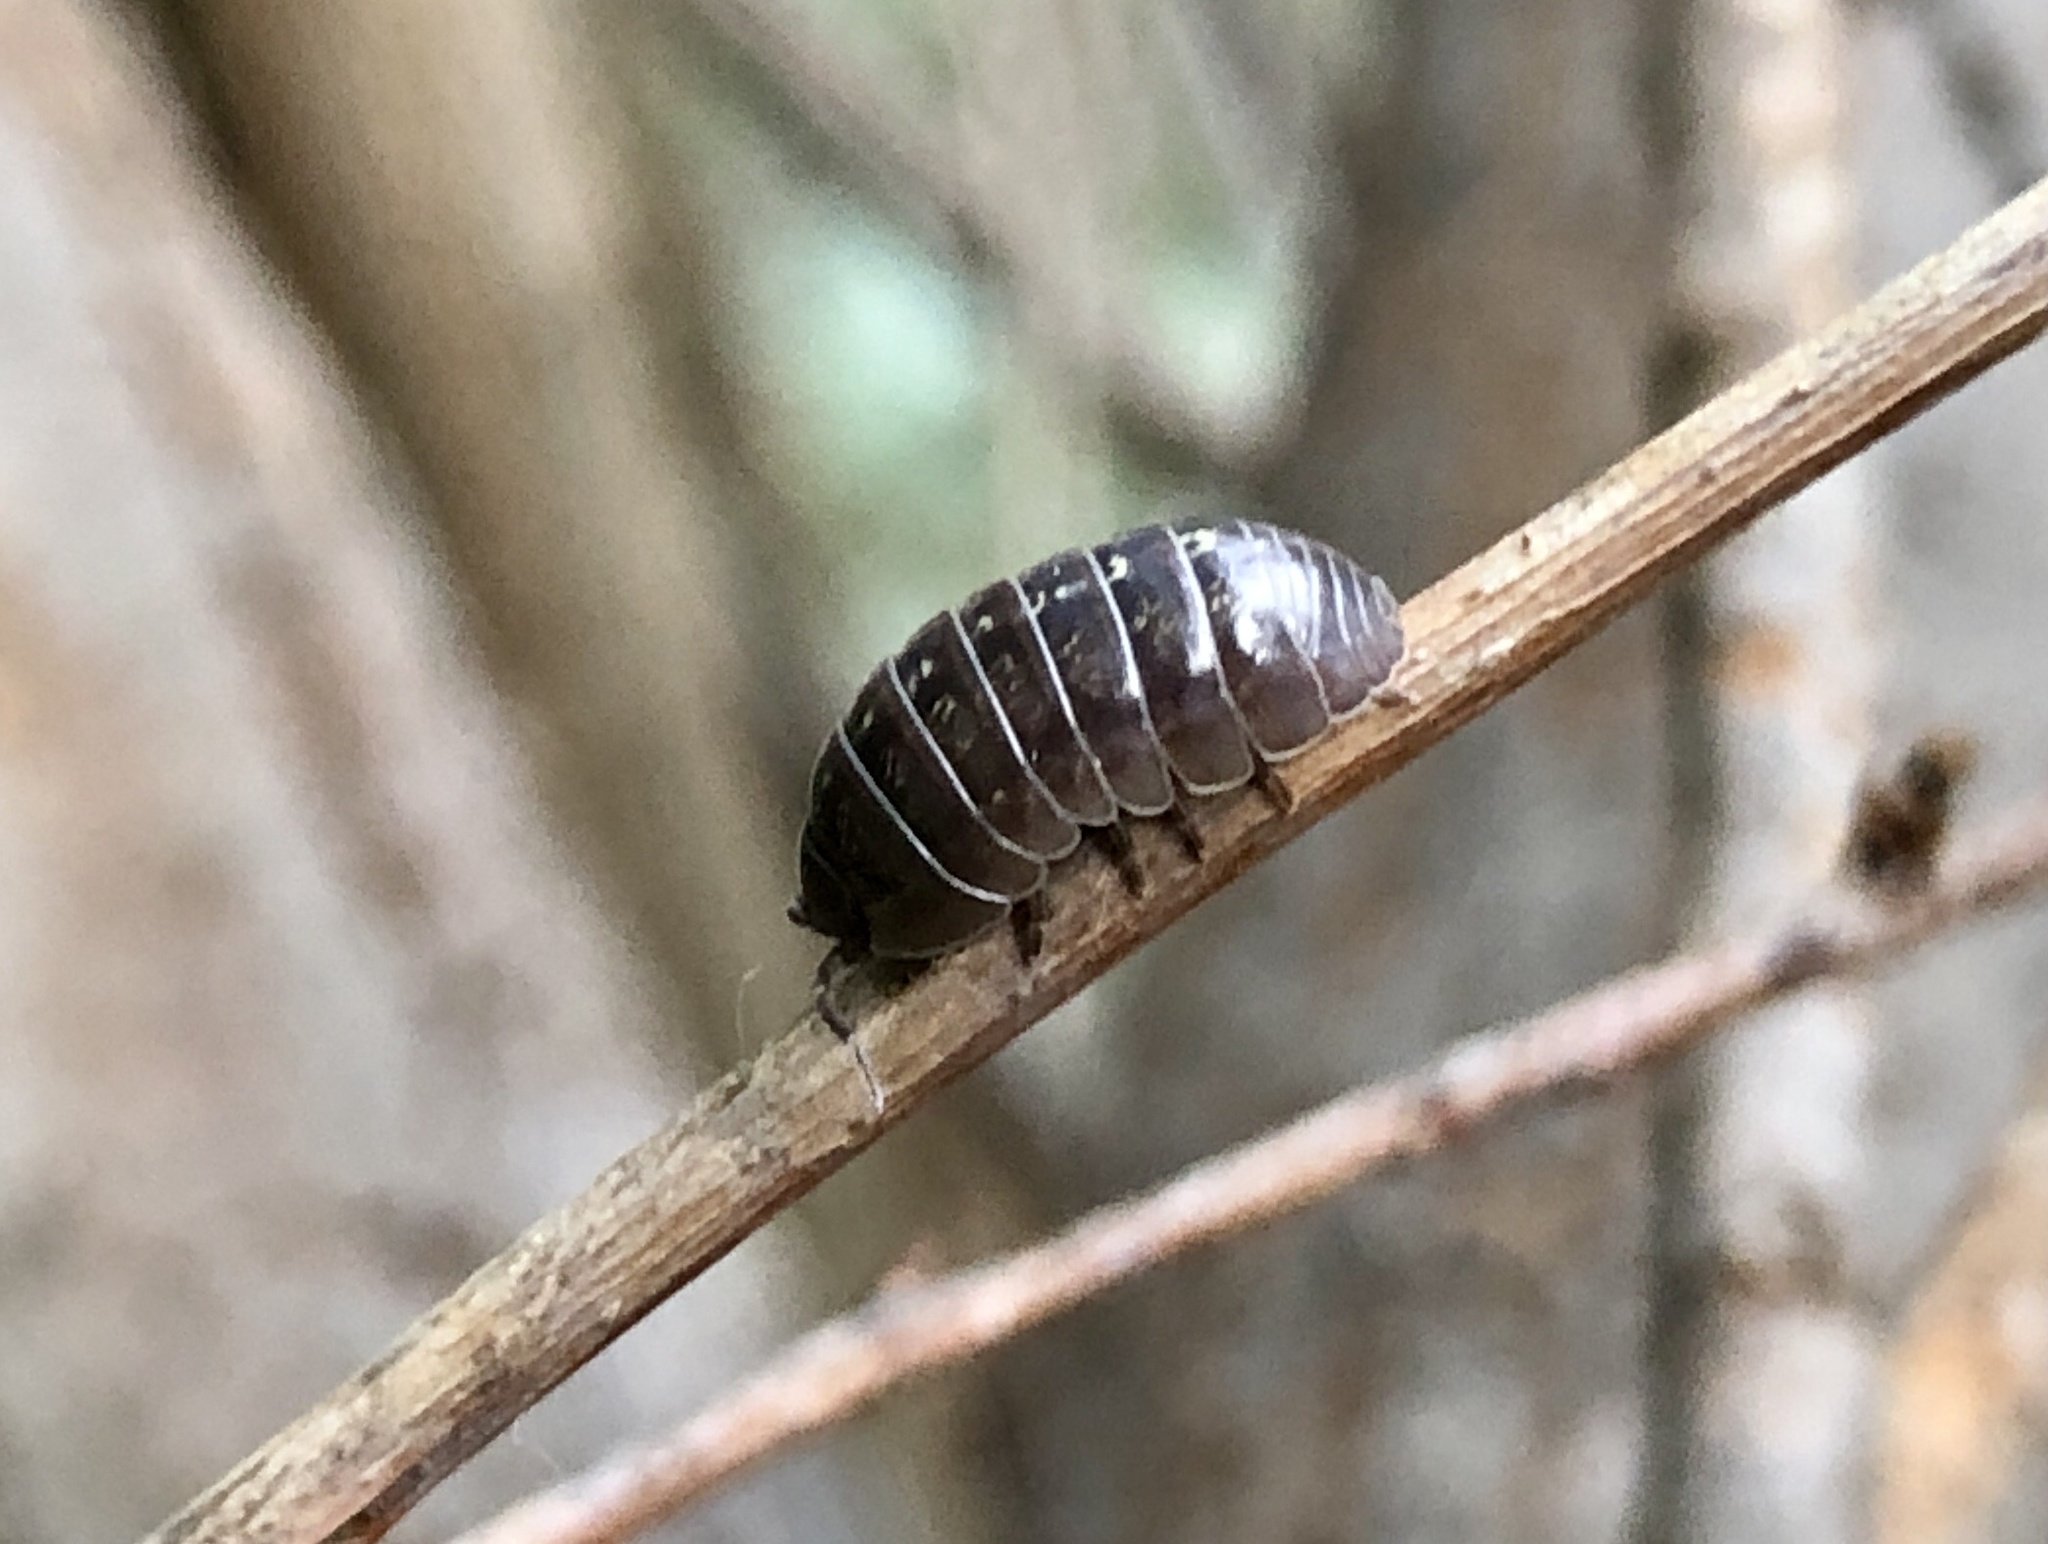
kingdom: Animalia
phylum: Arthropoda
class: Malacostraca
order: Isopoda
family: Armadillidiidae
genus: Armadillidium
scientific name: Armadillidium vulgare
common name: Common pill woodlouse
